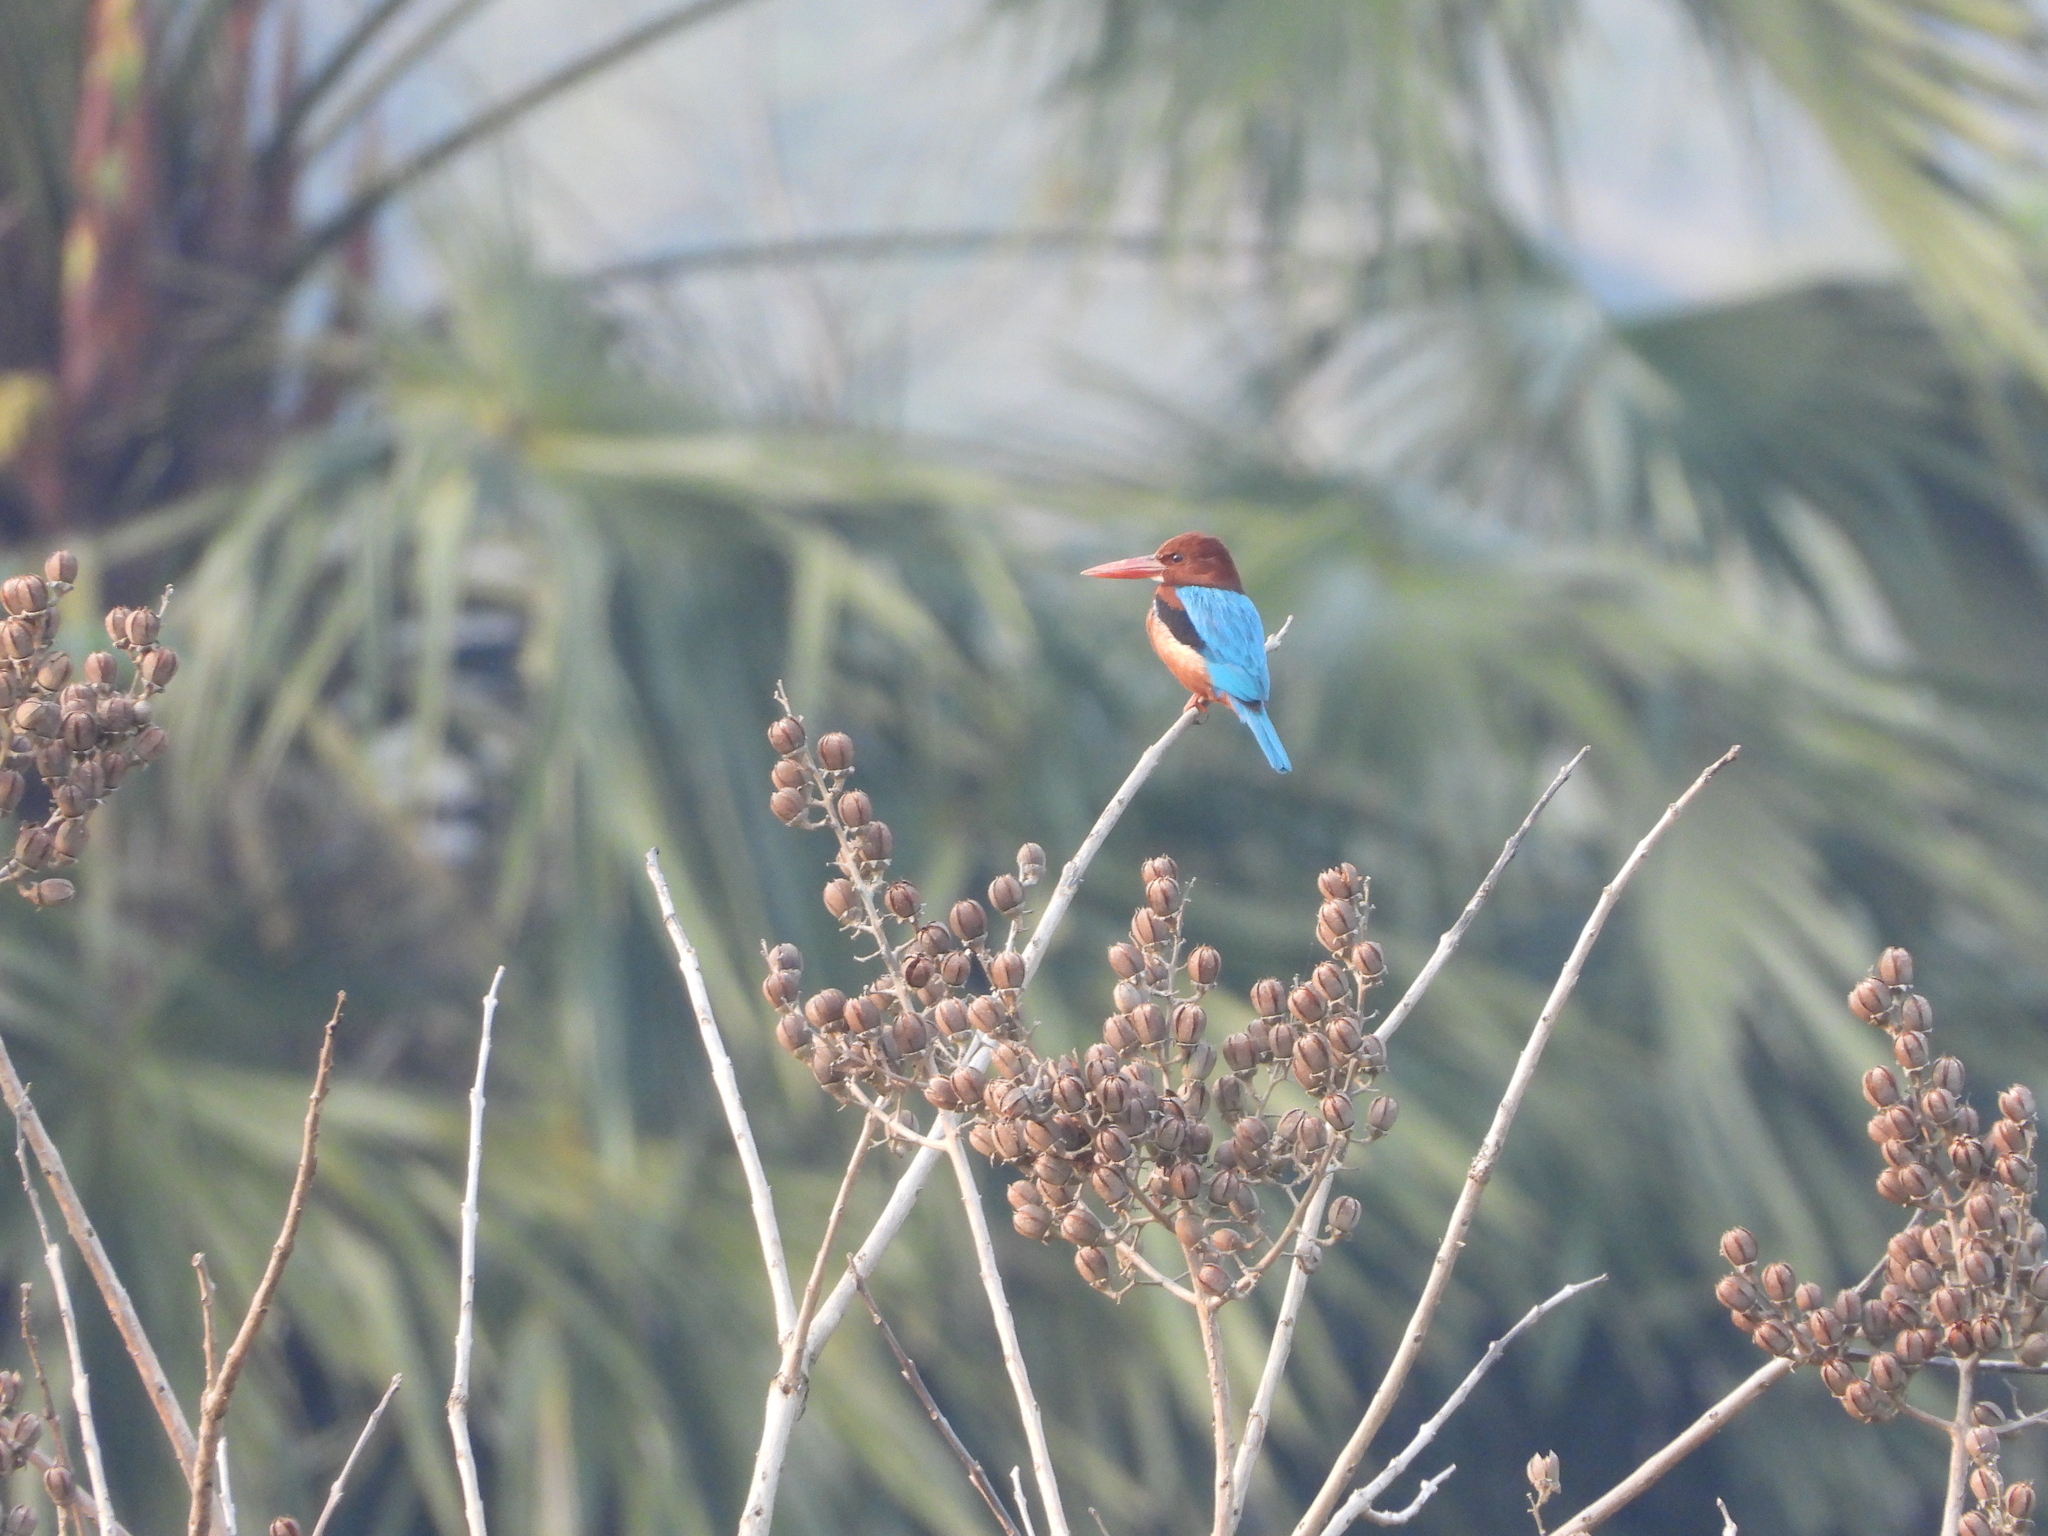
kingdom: Animalia
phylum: Chordata
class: Aves
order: Coraciiformes
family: Alcedinidae
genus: Halcyon
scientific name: Halcyon smyrnensis
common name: White-throated kingfisher
